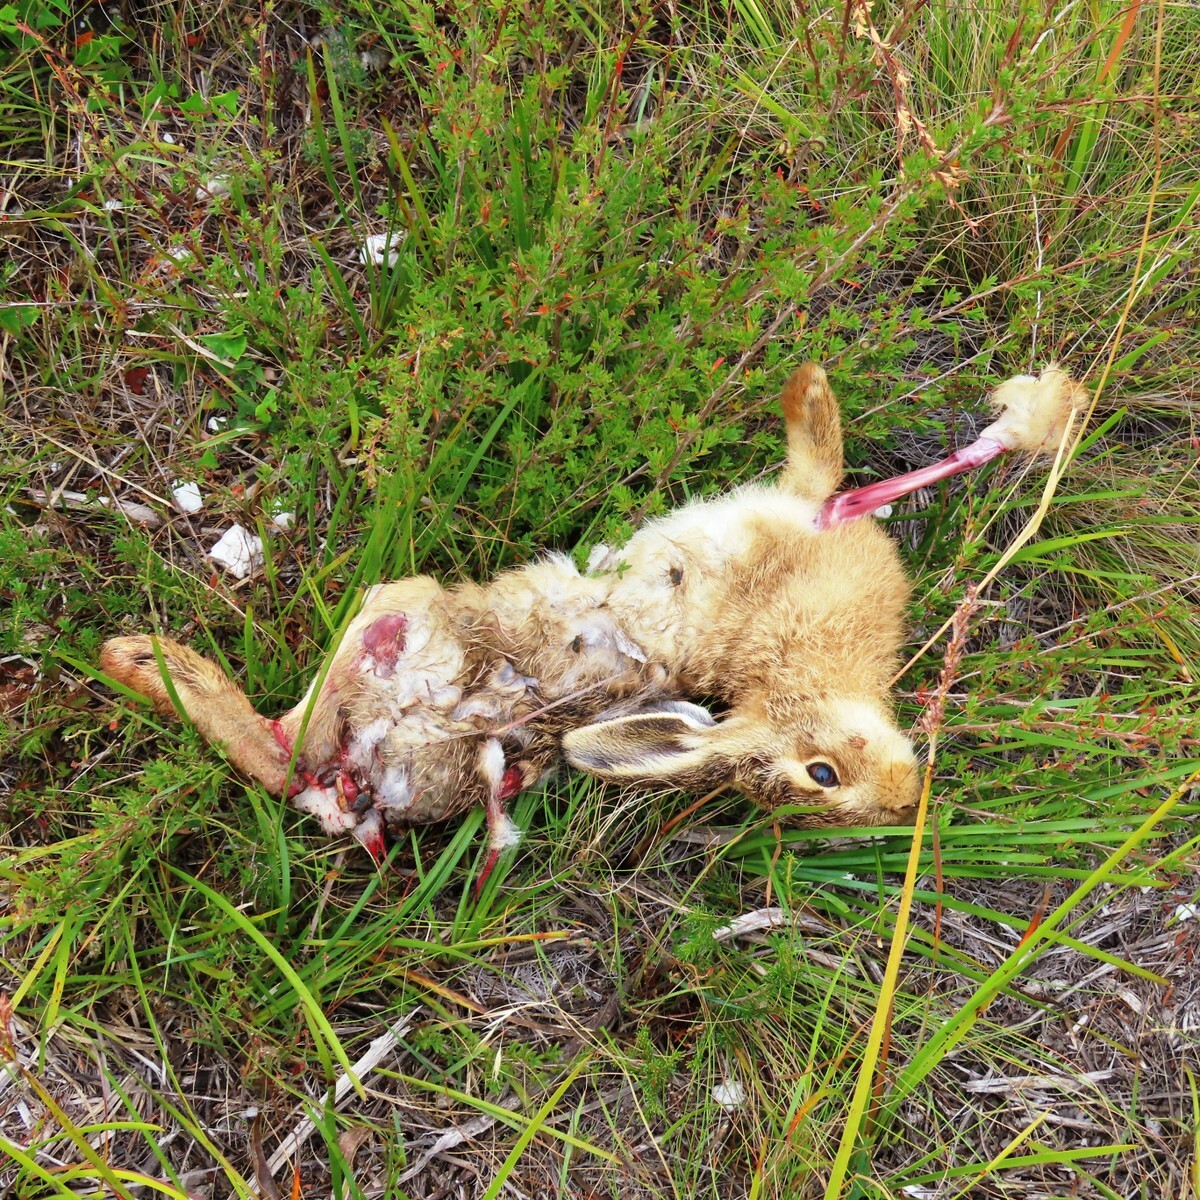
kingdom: Animalia
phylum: Chordata
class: Mammalia
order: Lagomorpha
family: Leporidae
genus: Oryctolagus
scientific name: Oryctolagus cuniculus
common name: European rabbit
